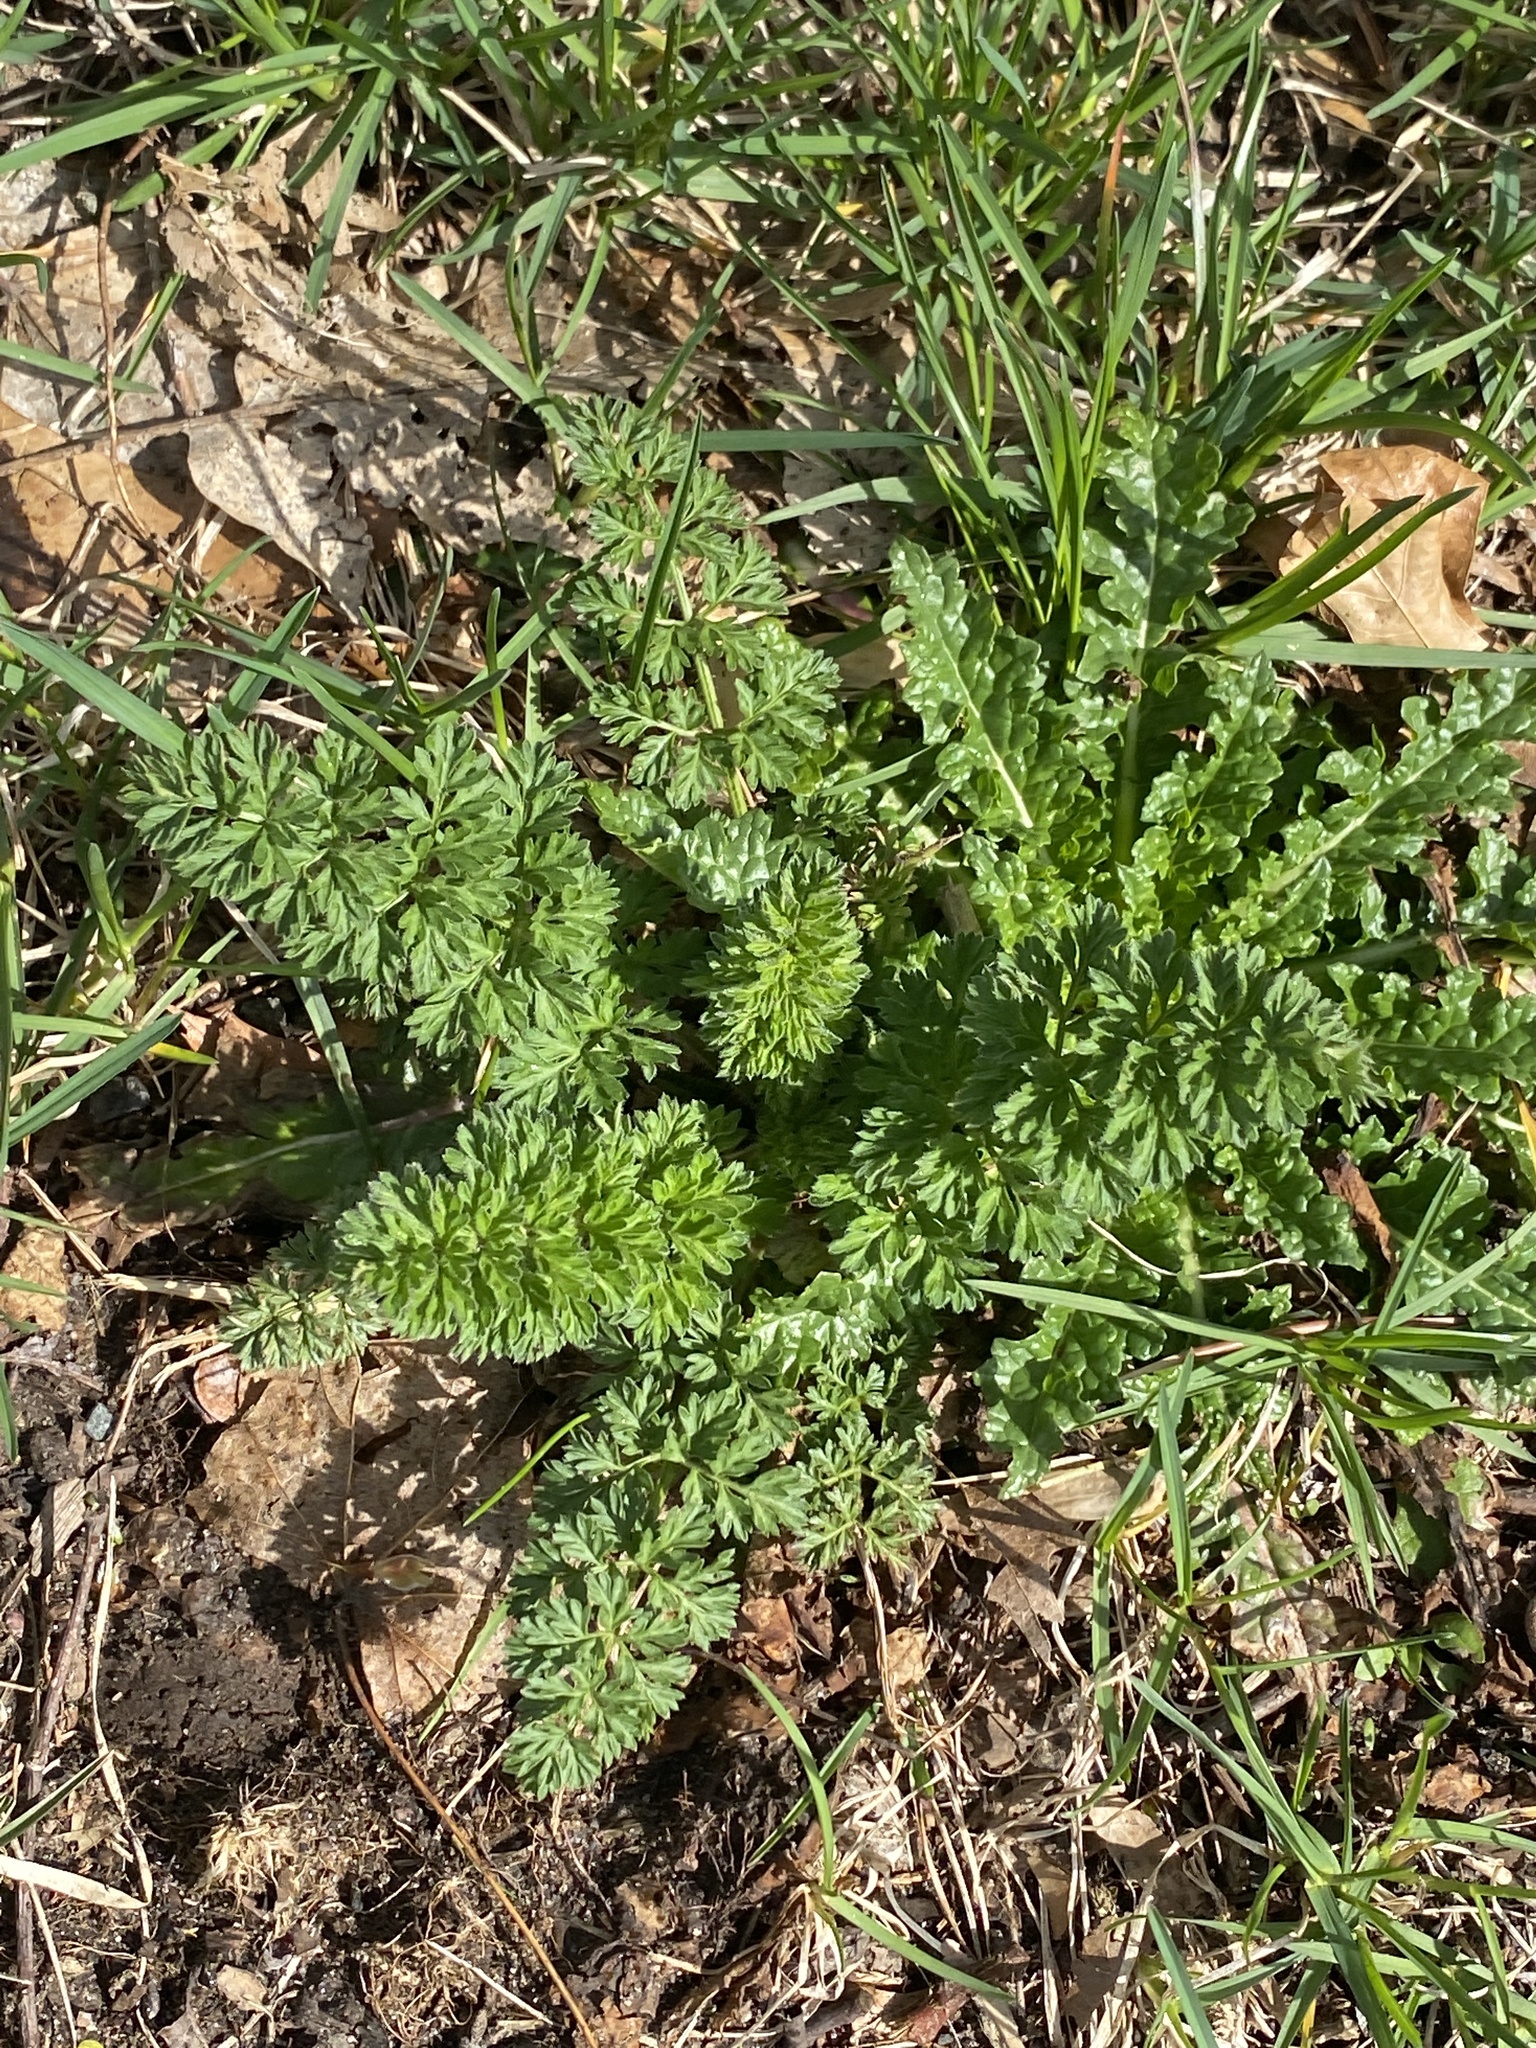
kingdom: Plantae
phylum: Tracheophyta
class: Magnoliopsida
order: Apiales
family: Apiaceae
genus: Daucus
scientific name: Daucus carota
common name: Wild carrot
